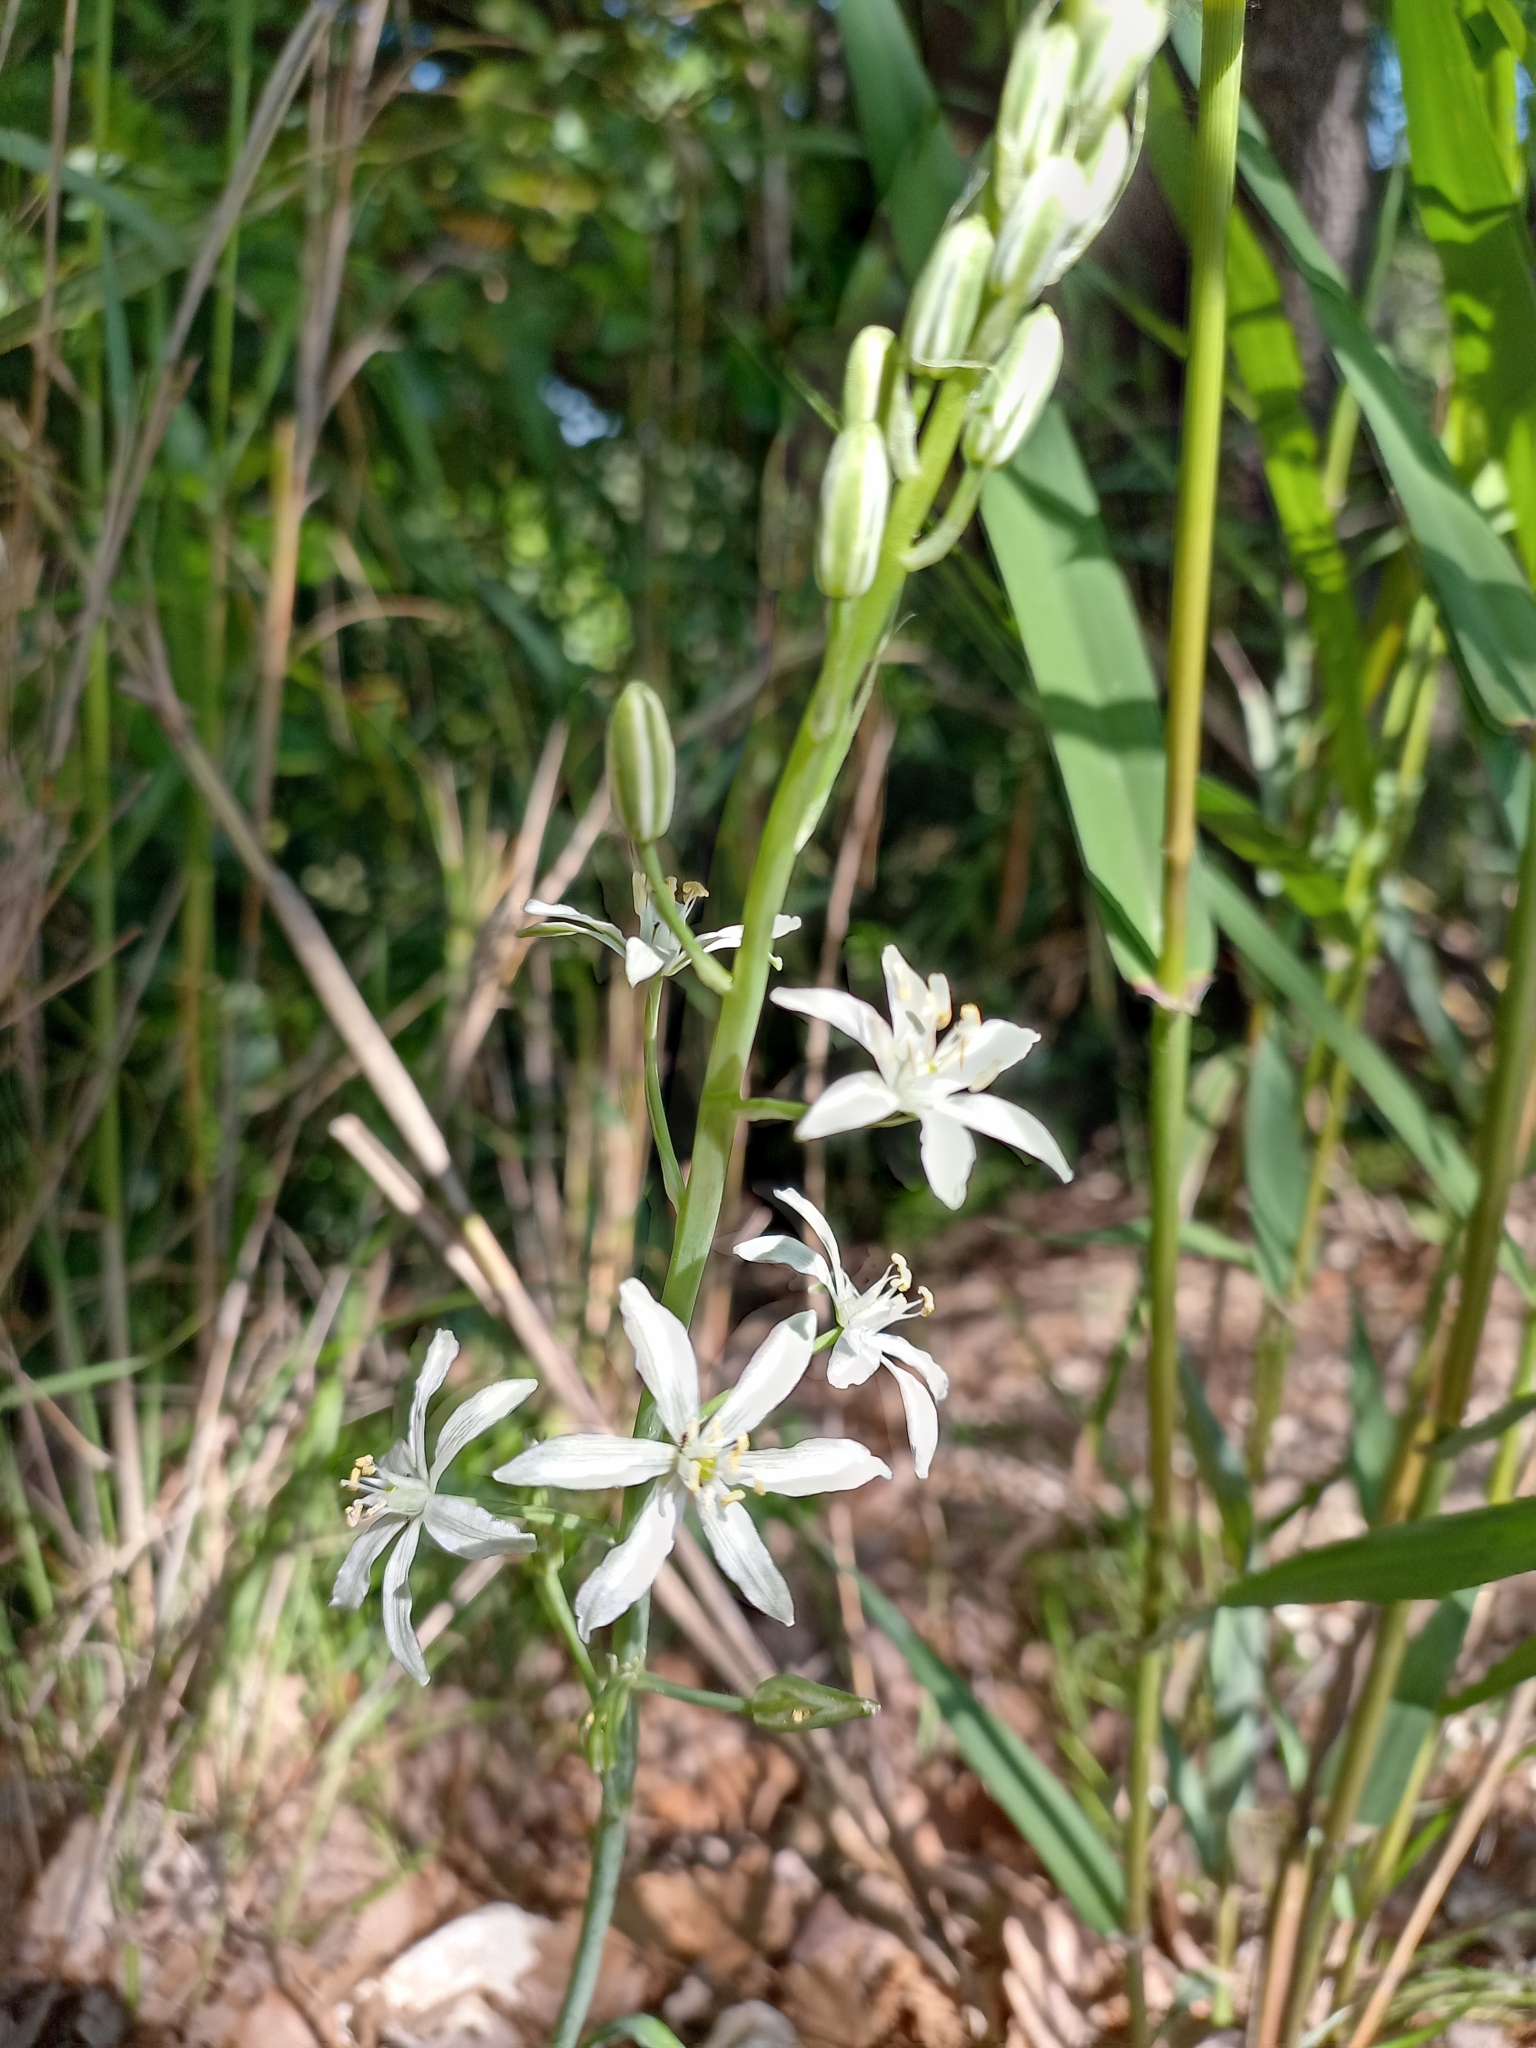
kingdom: Plantae
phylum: Tracheophyta
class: Liliopsida
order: Asparagales
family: Asparagaceae
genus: Ornithogalum
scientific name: Ornithogalum narbonense
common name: Bath-asparagus
